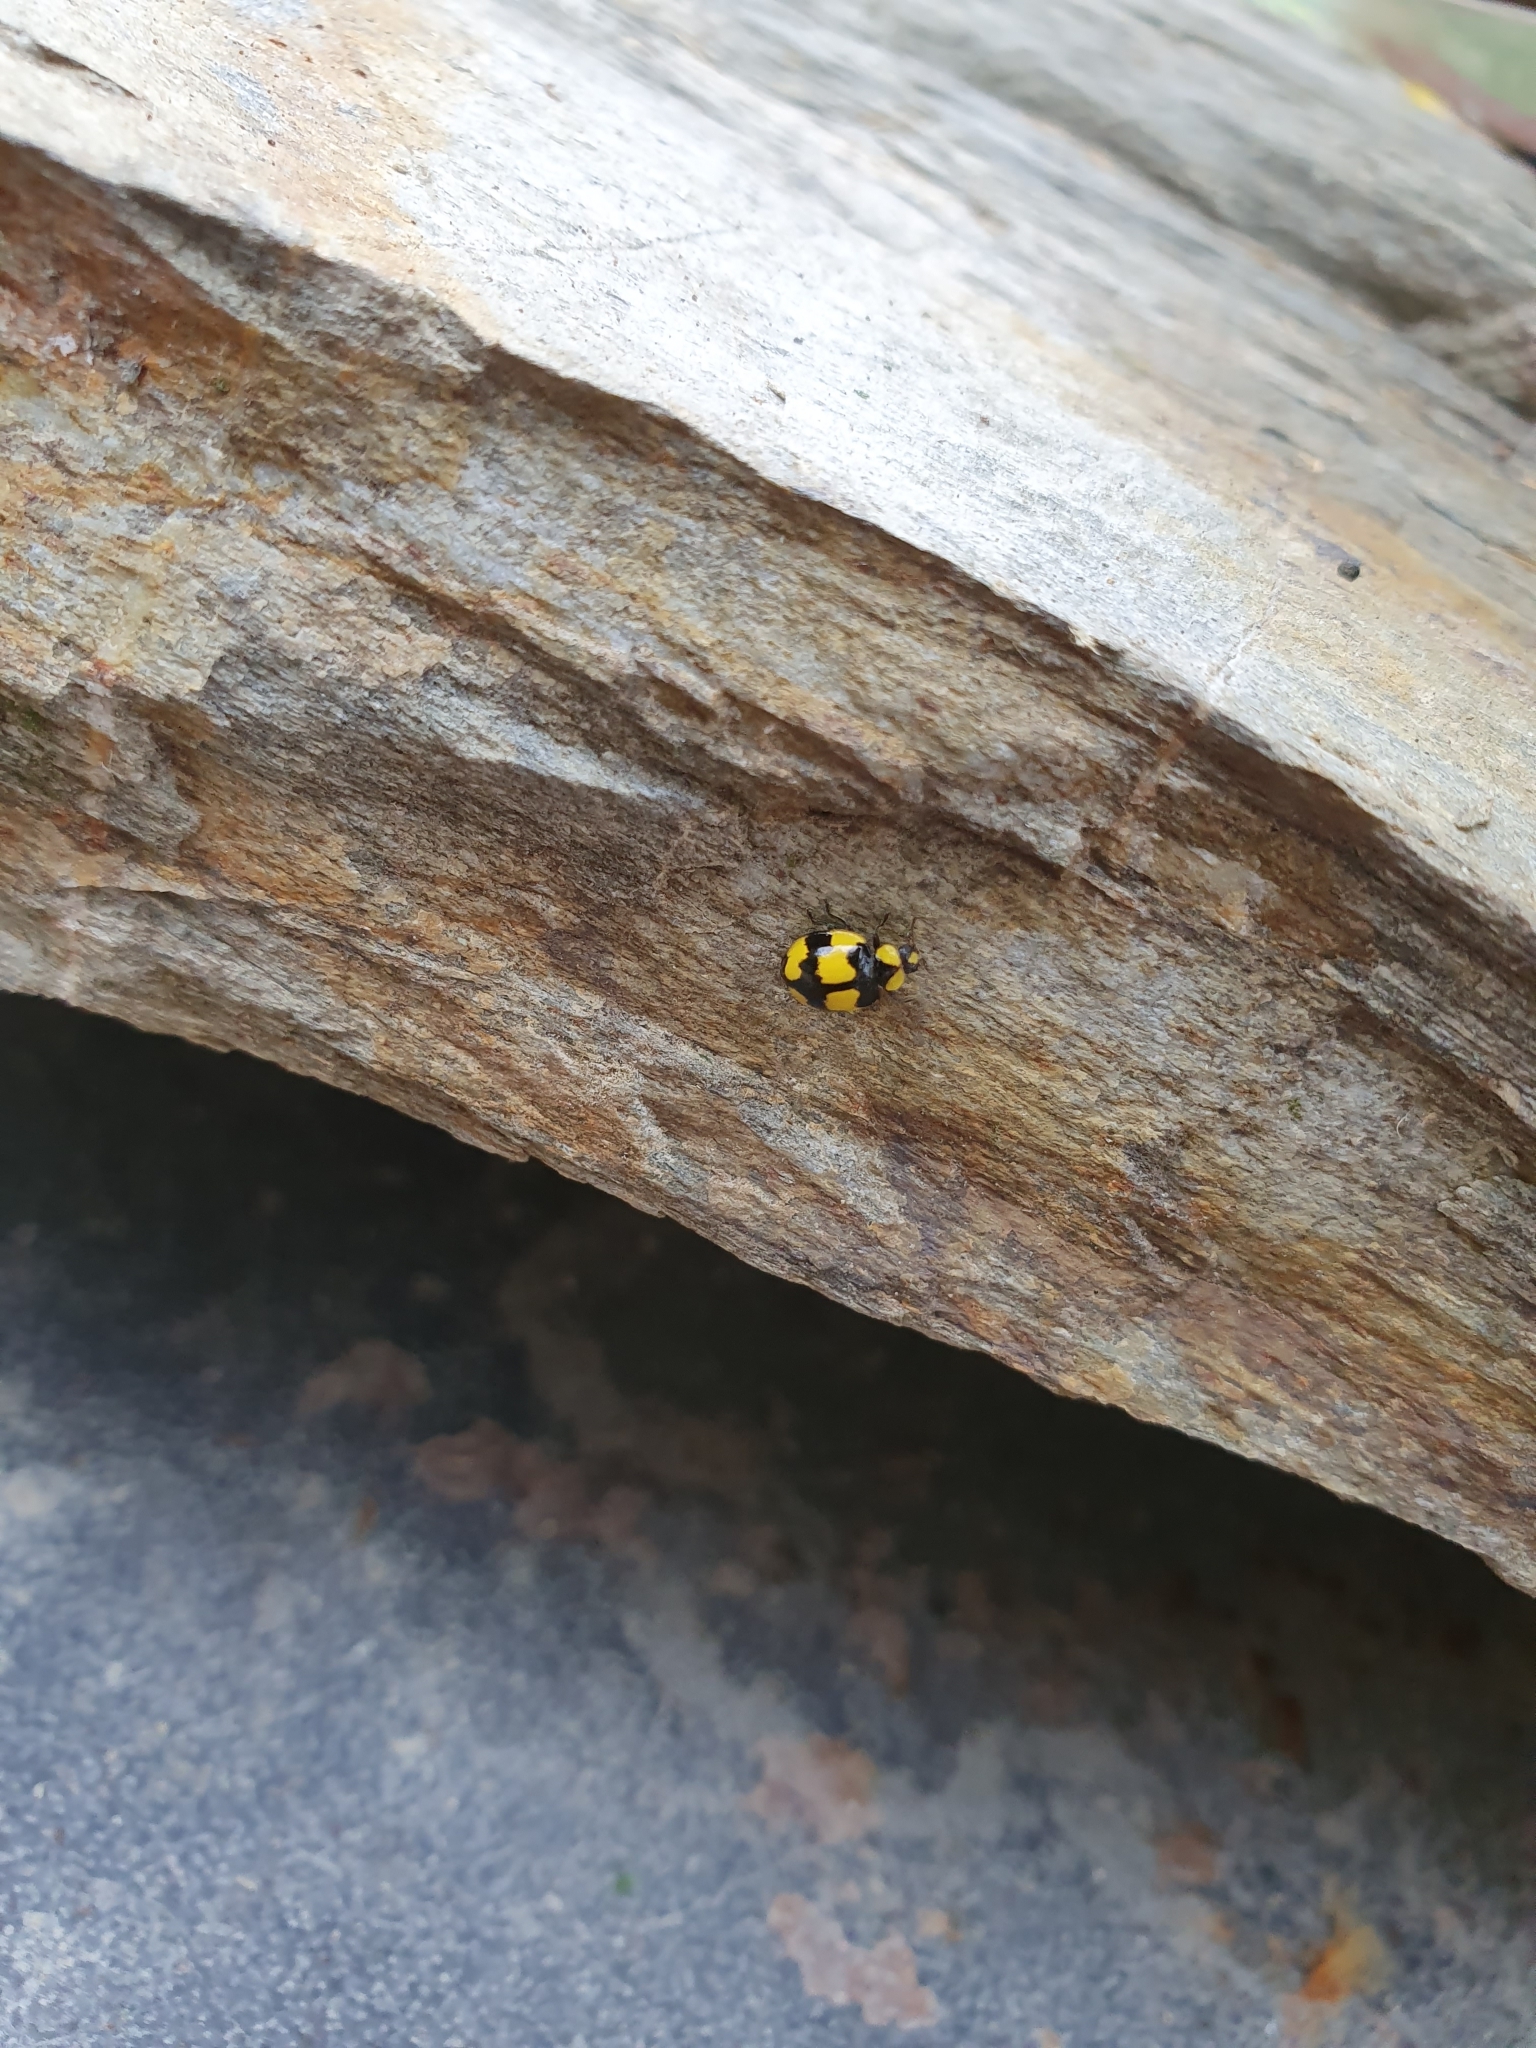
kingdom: Animalia
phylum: Arthropoda
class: Insecta
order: Coleoptera
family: Coccinellidae
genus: Illeis
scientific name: Illeis galbula
